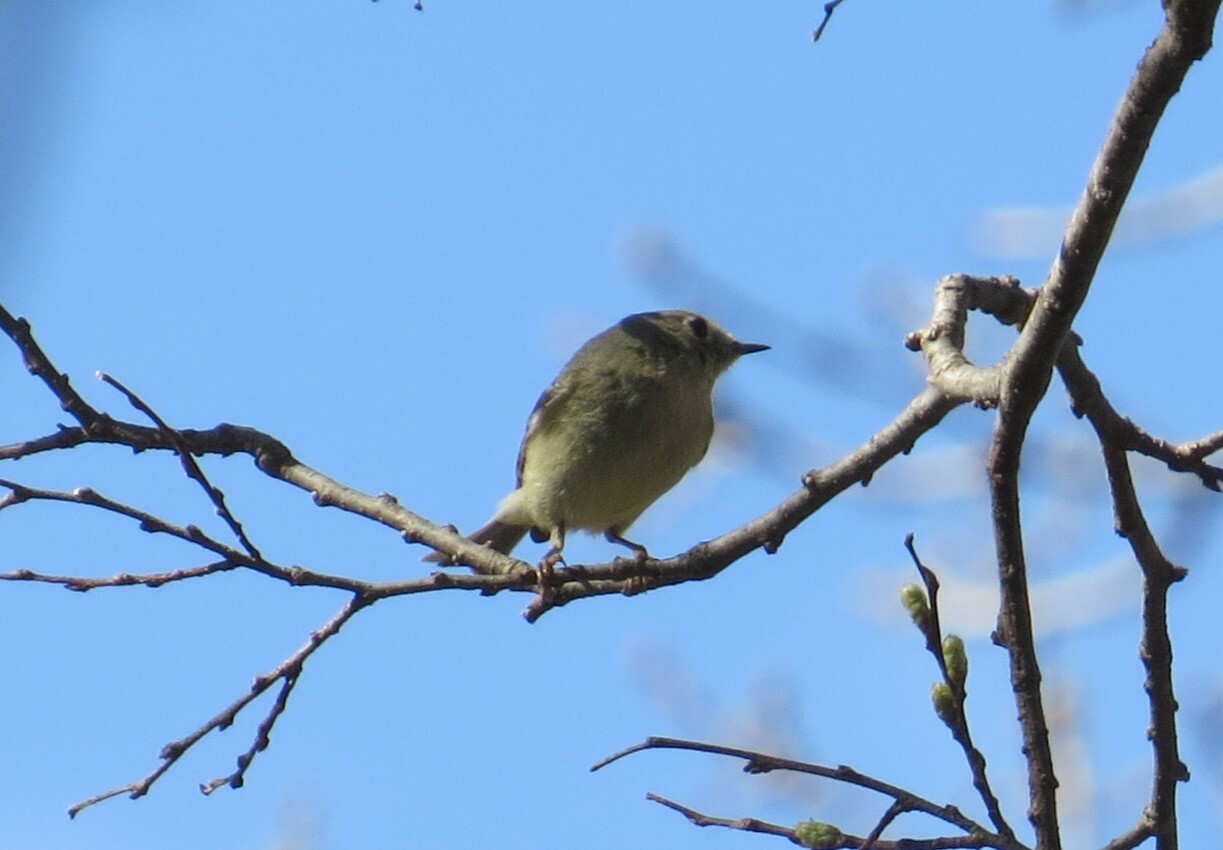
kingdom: Animalia
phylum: Chordata
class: Aves
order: Passeriformes
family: Regulidae
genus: Regulus
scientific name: Regulus calendula
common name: Ruby-crowned kinglet
